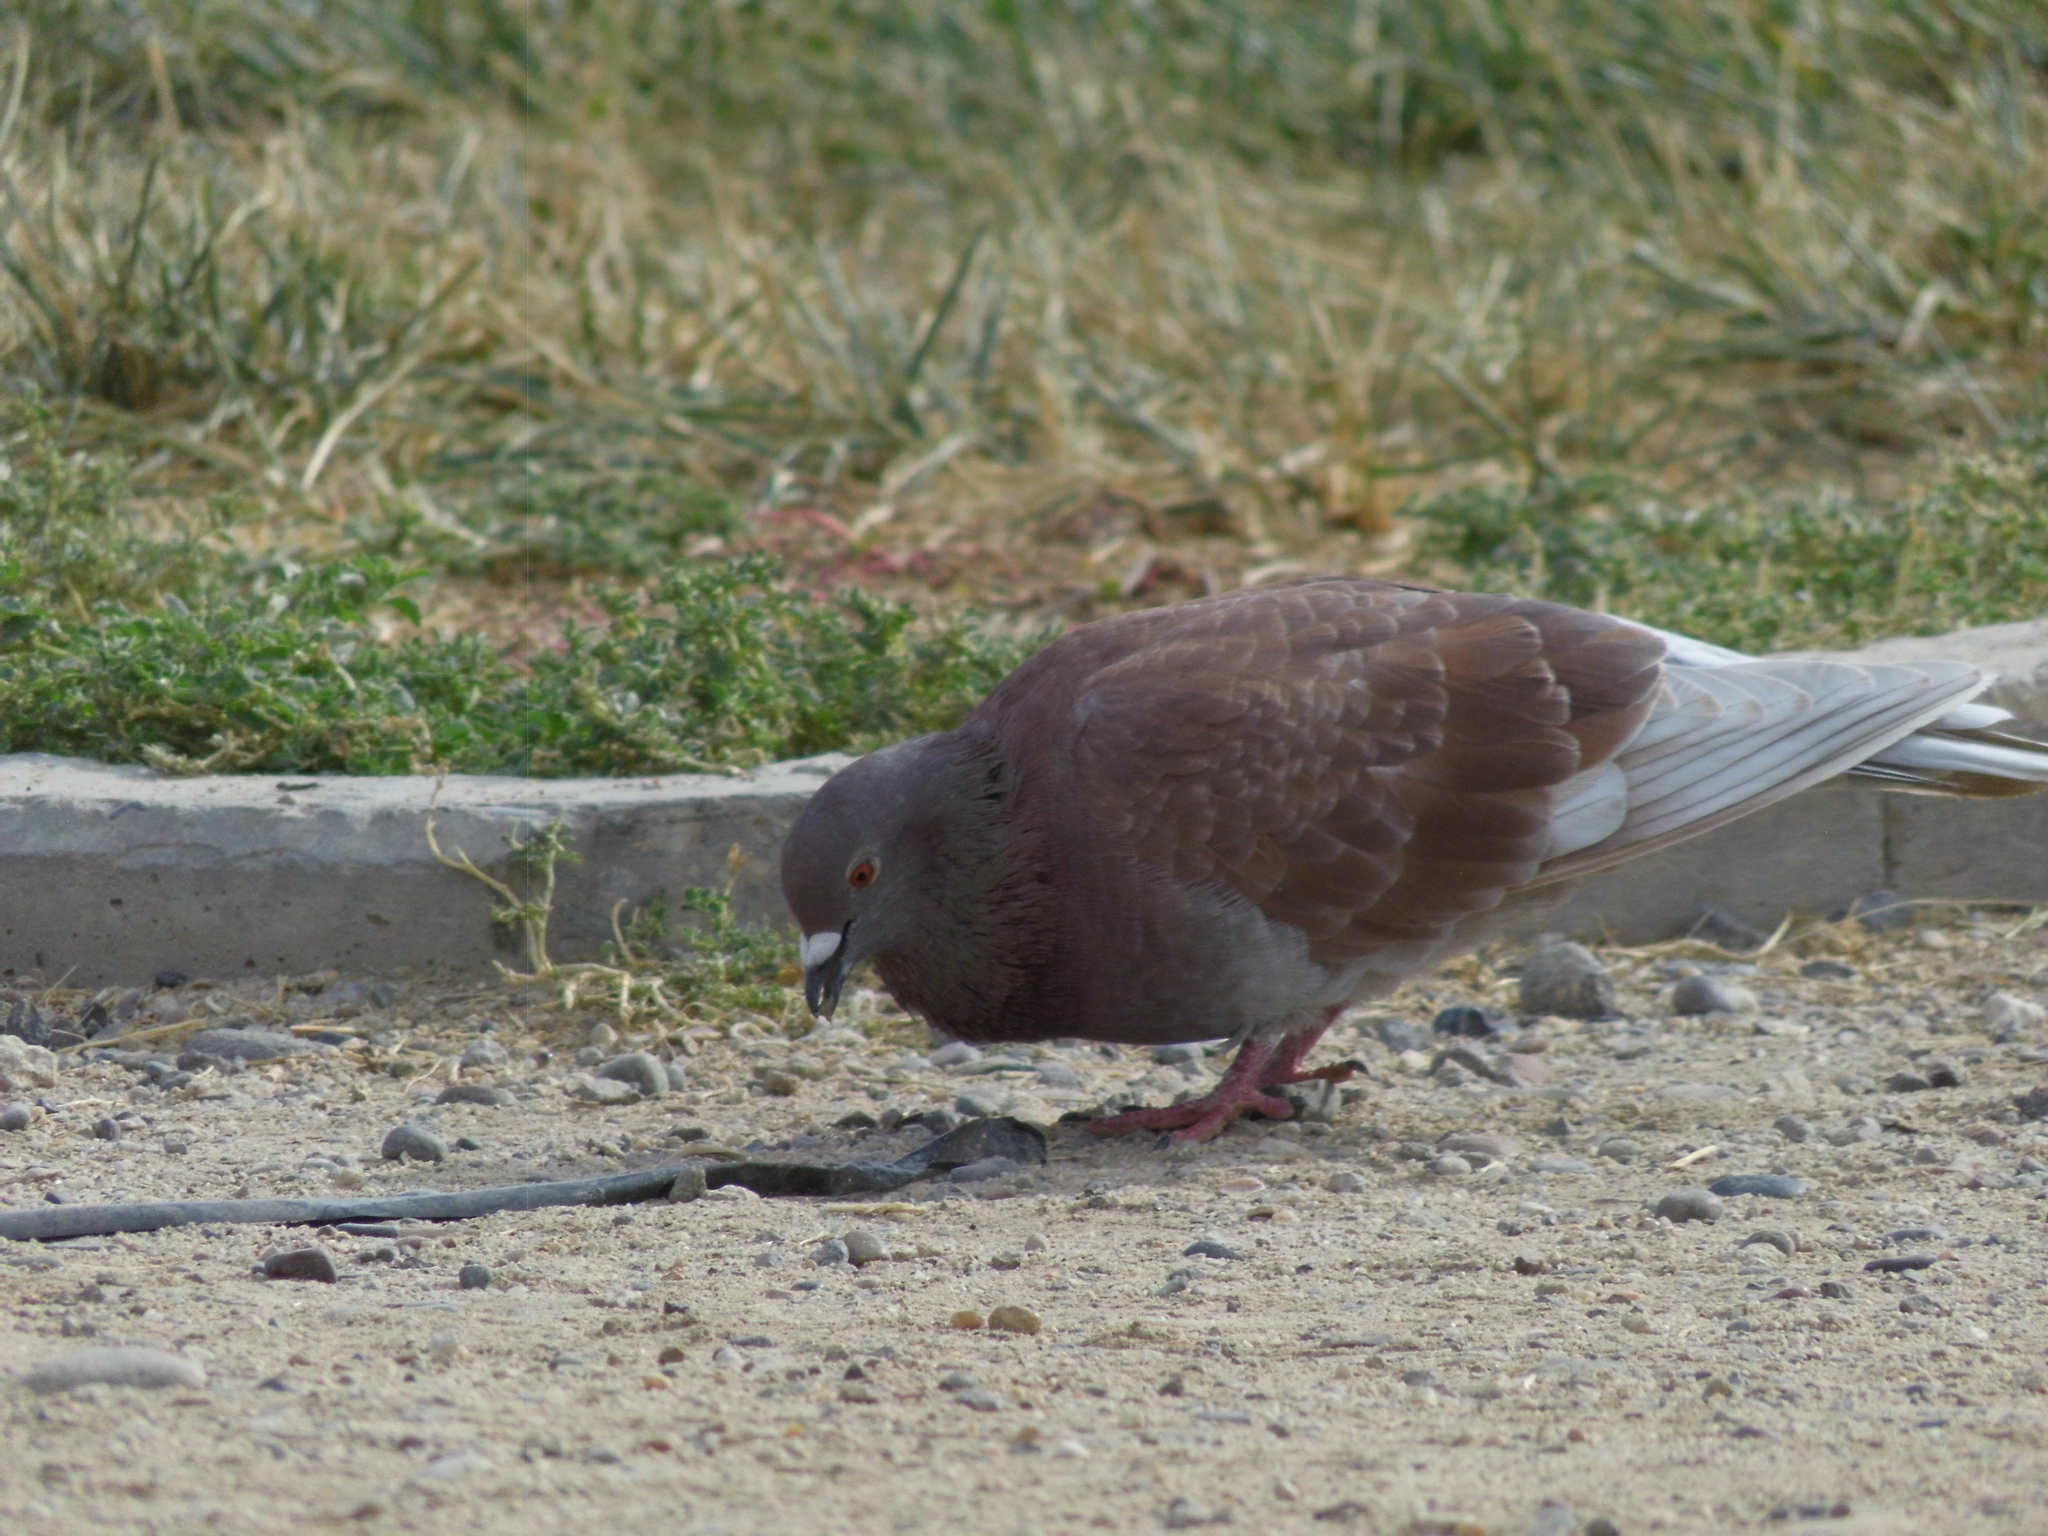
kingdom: Animalia
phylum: Chordata
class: Aves
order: Columbiformes
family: Columbidae
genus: Columba
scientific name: Columba livia
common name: Rock pigeon
